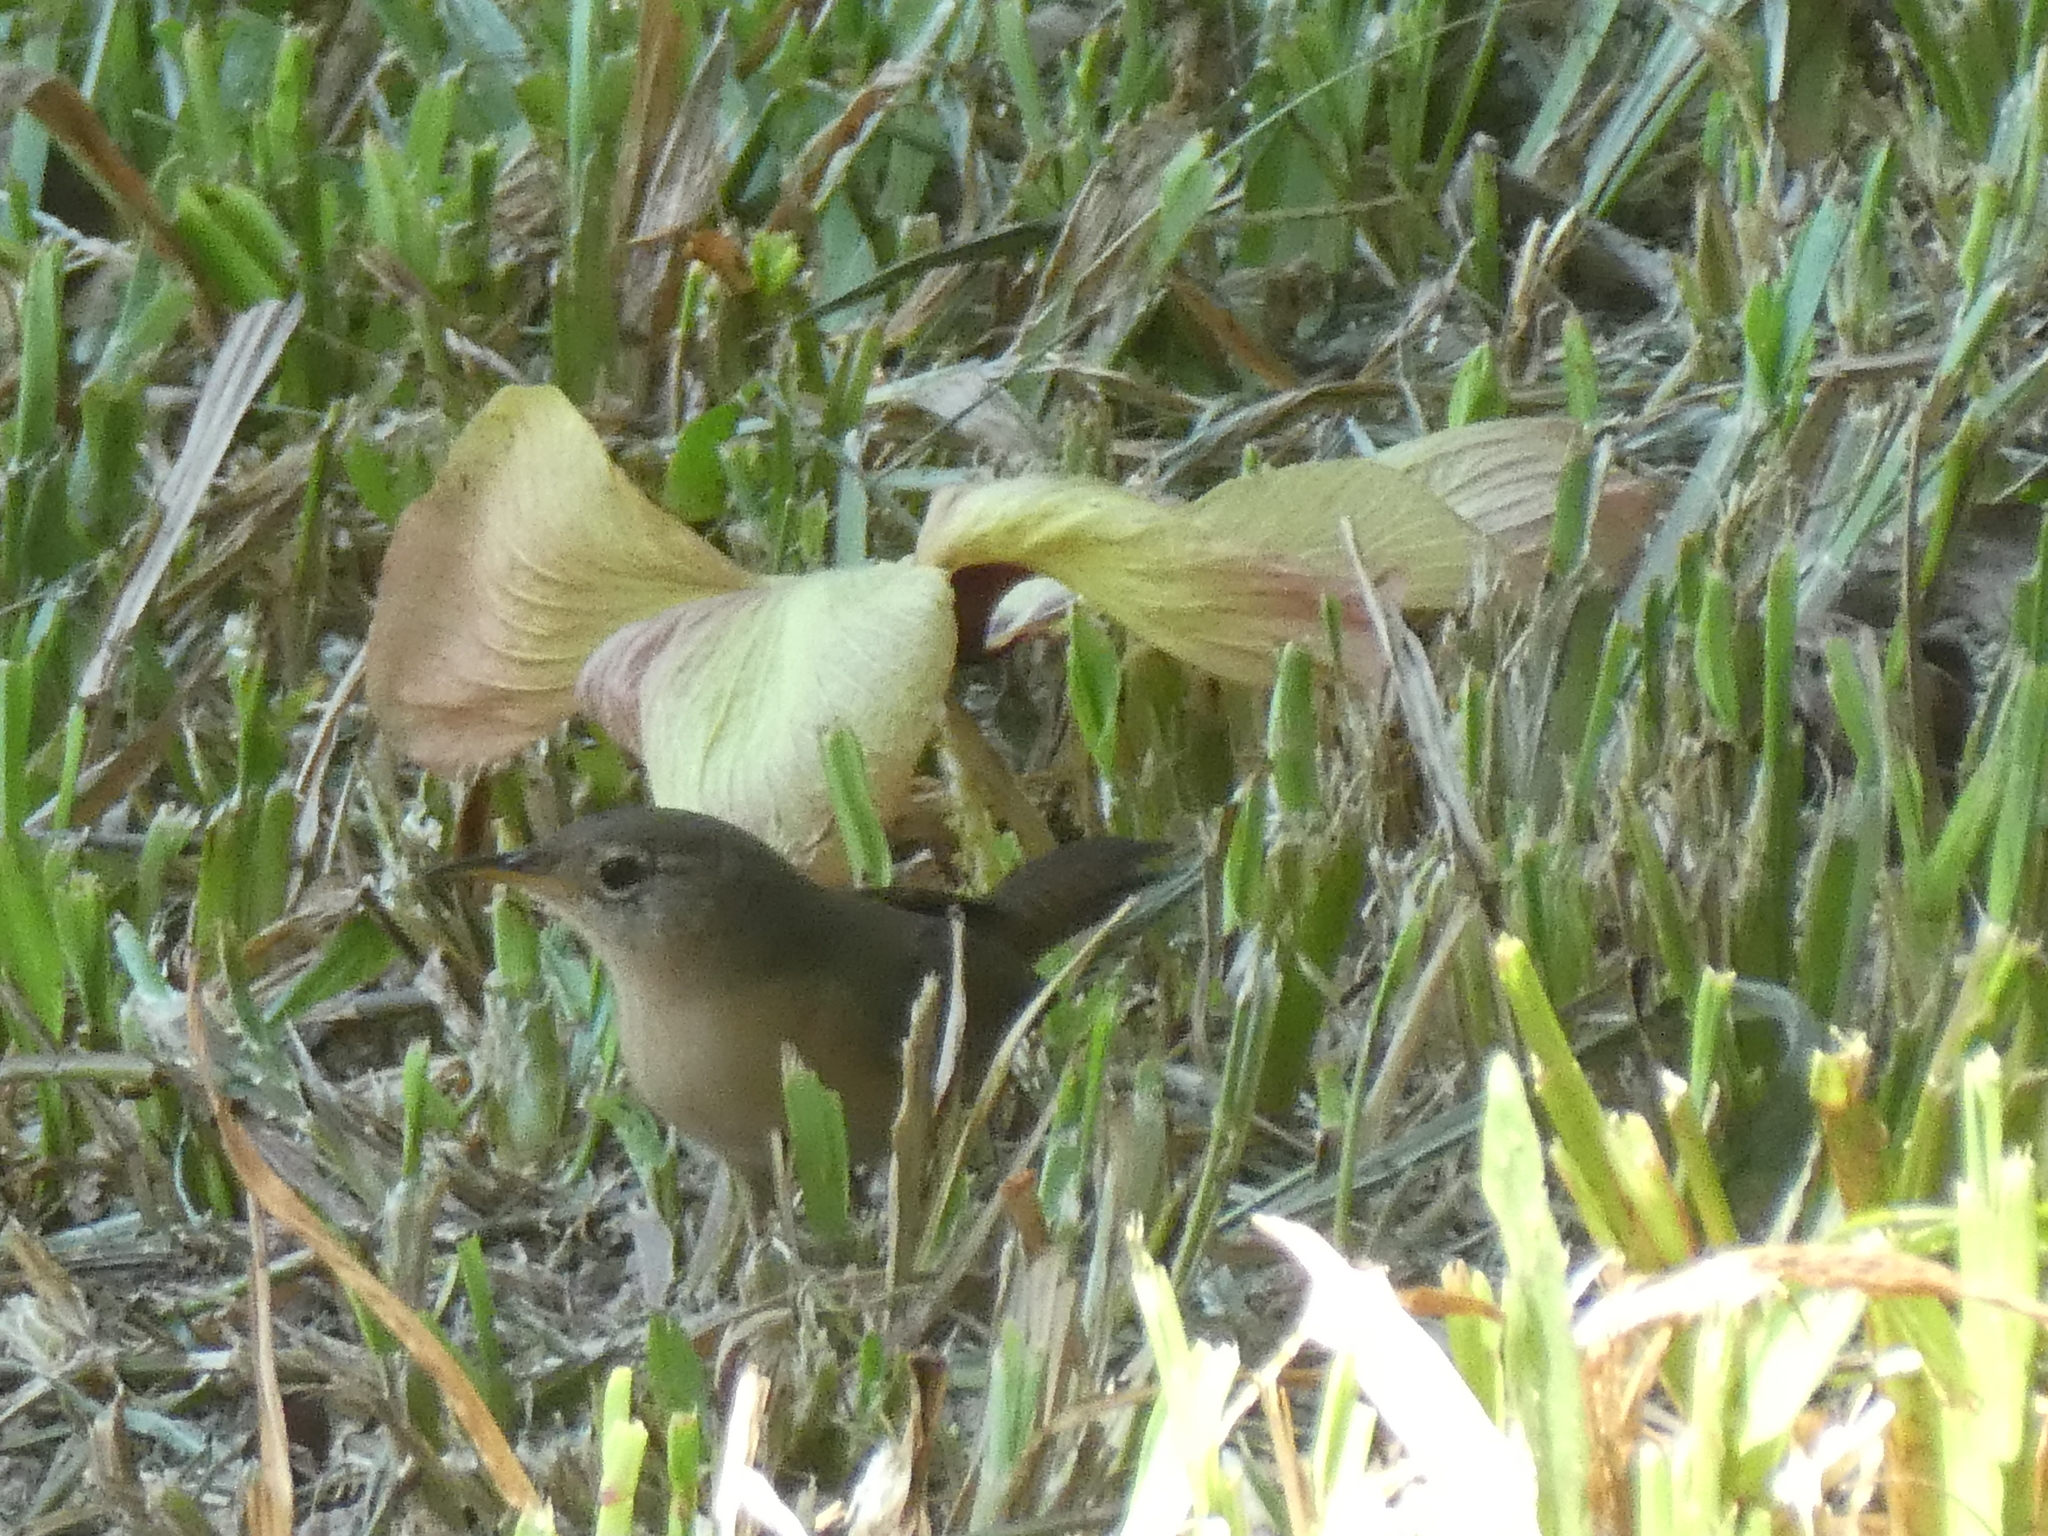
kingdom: Animalia
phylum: Chordata
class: Aves
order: Passeriformes
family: Troglodytidae
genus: Troglodytes
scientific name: Troglodytes aedon
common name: House wren
